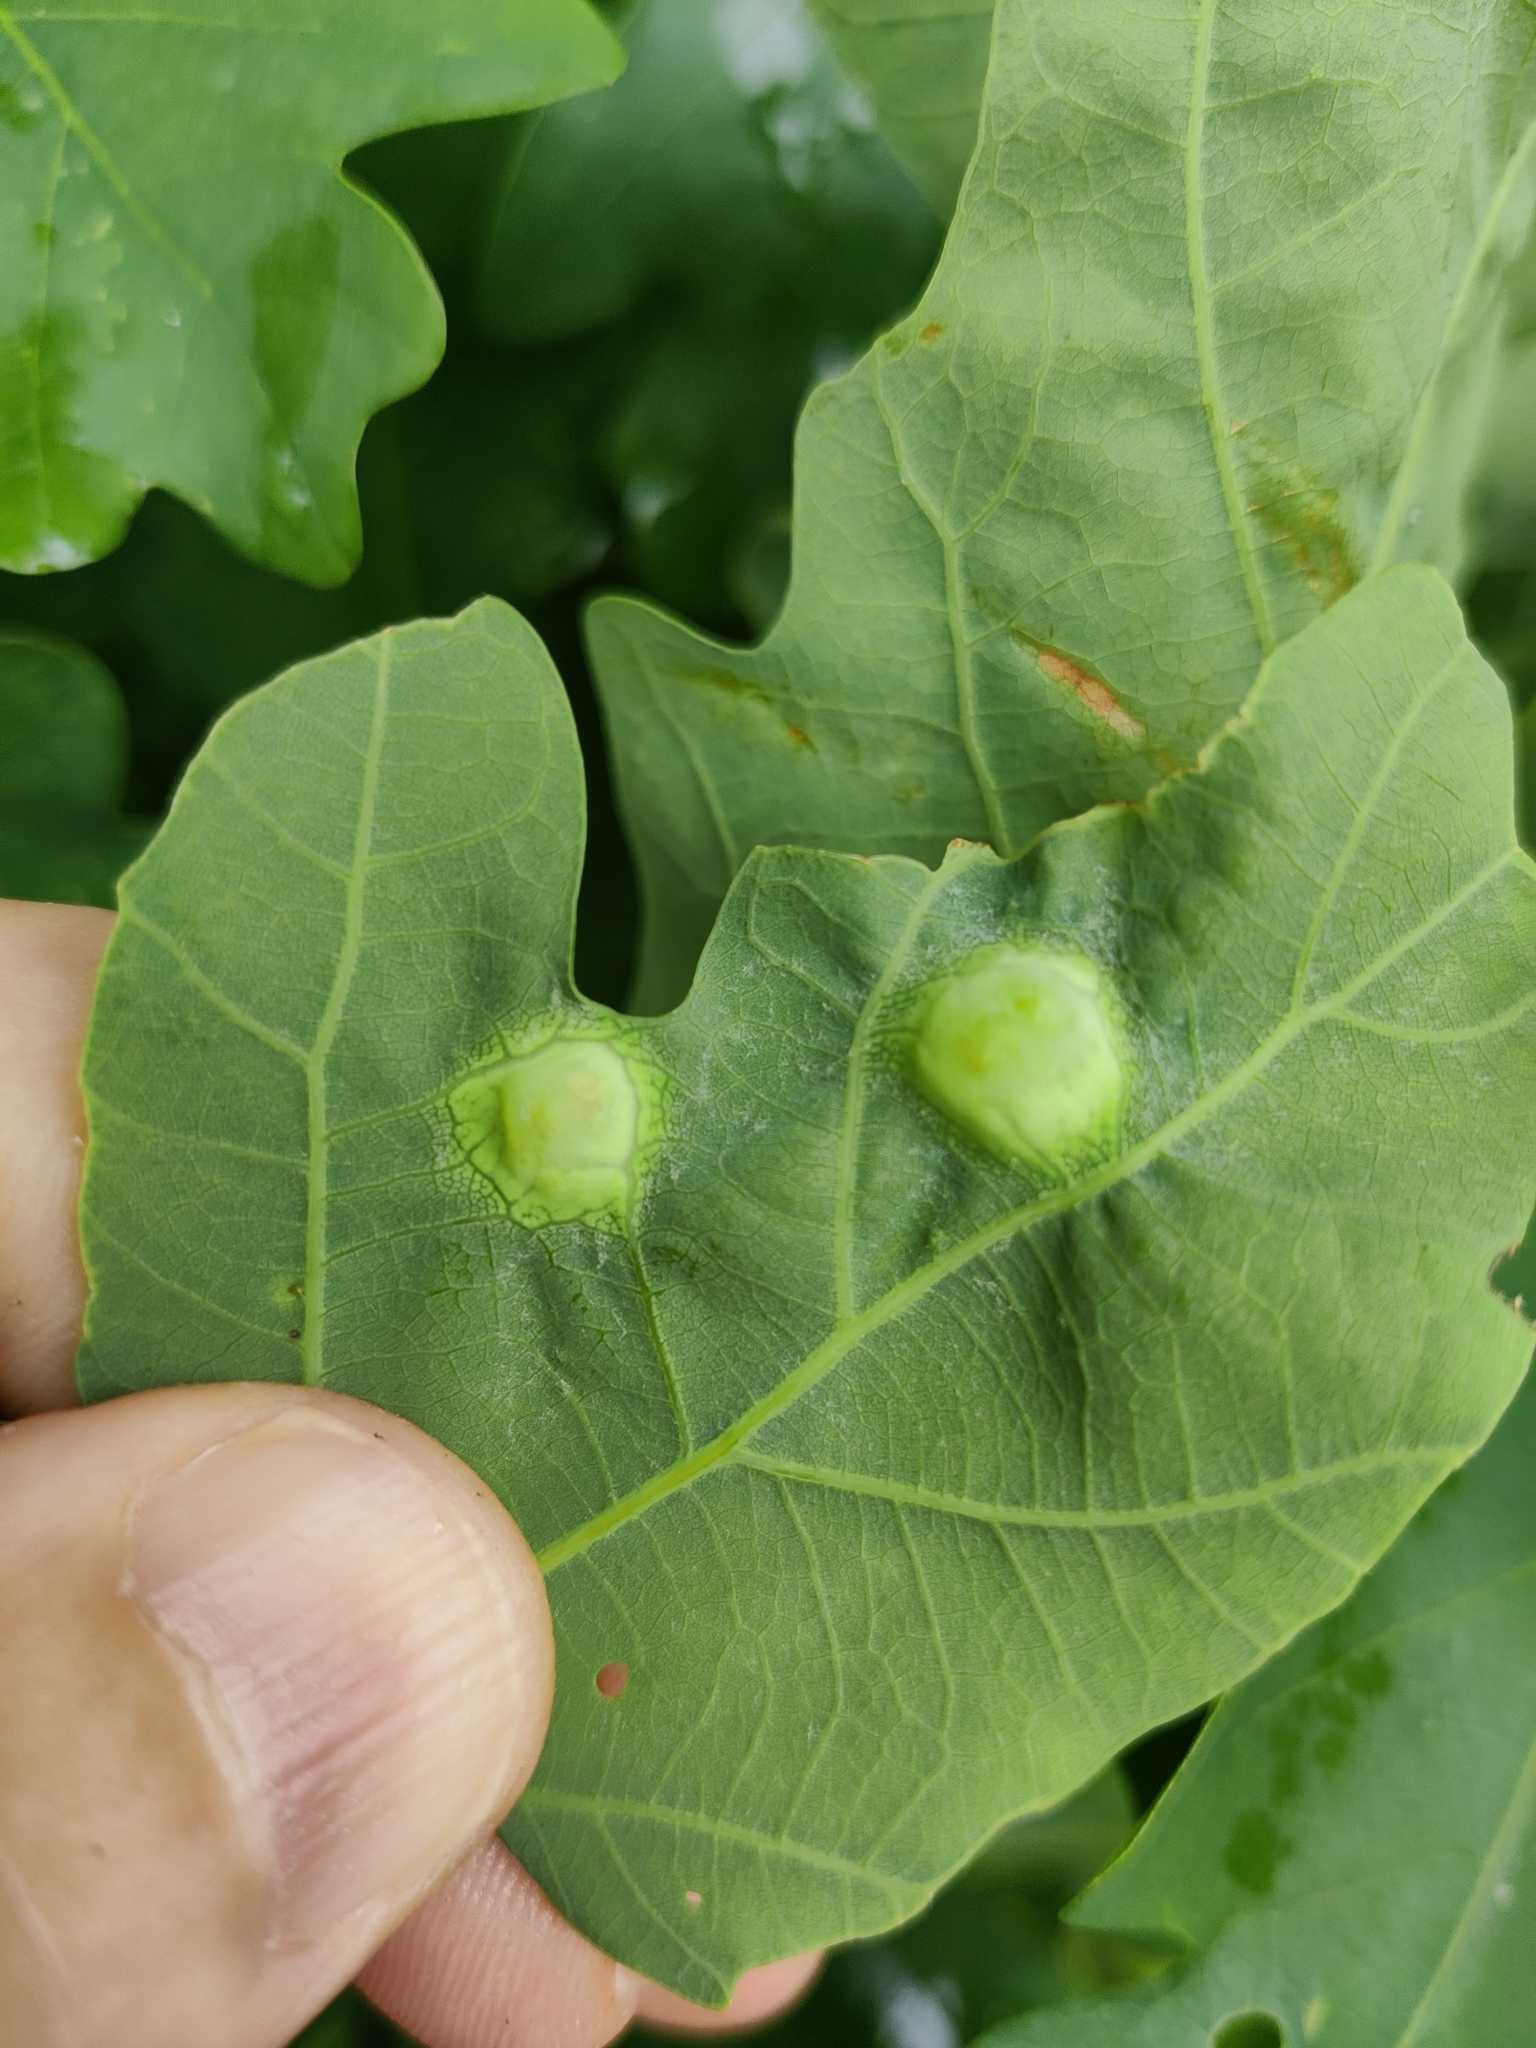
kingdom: Animalia
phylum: Arthropoda
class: Insecta
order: Hymenoptera
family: Cynipidae
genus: Callirhytis
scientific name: Callirhytis
